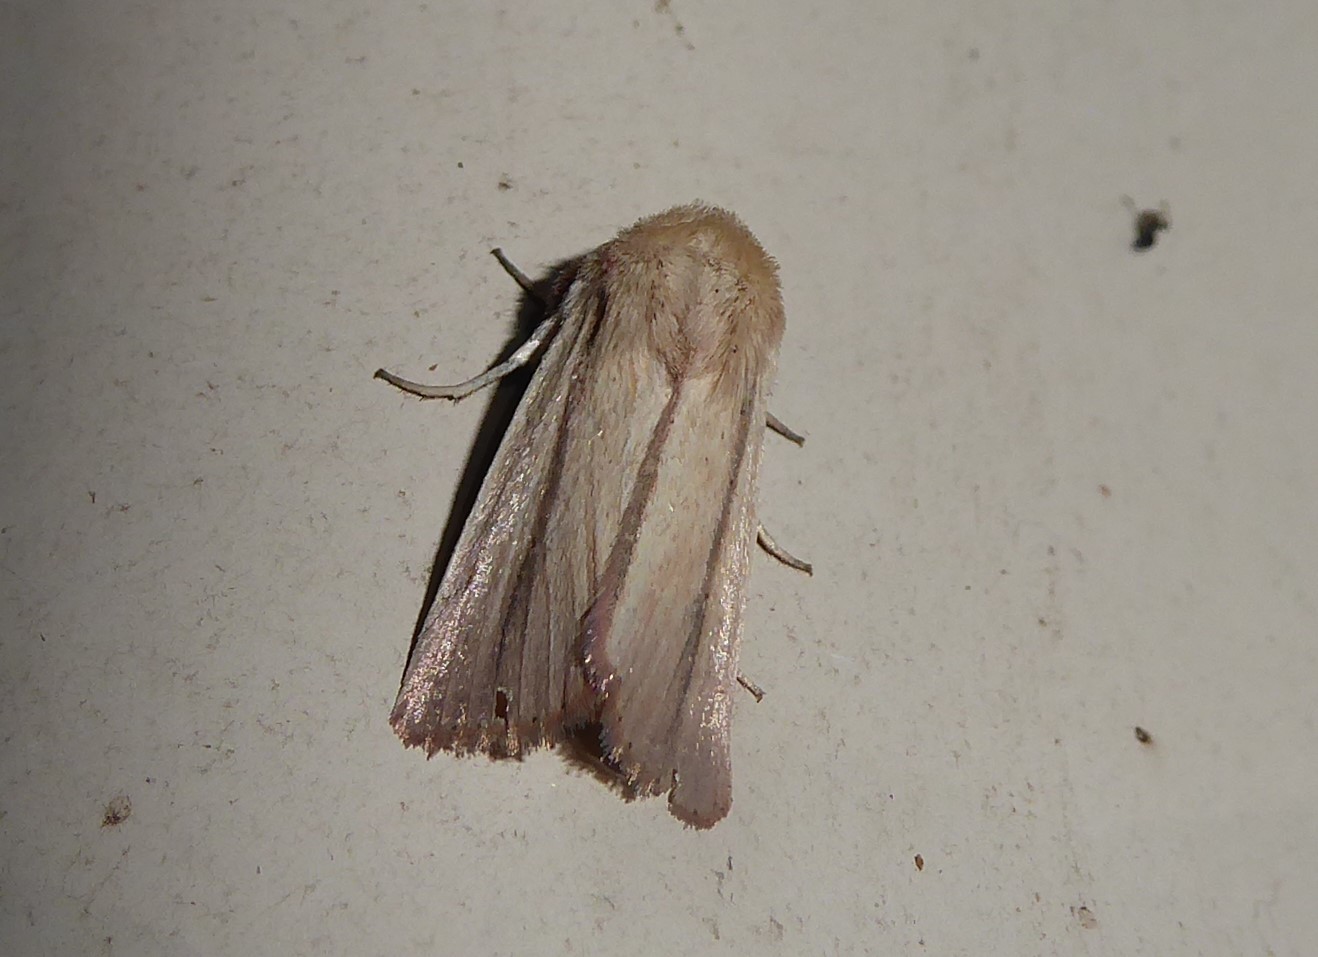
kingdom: Animalia
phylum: Arthropoda
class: Insecta
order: Lepidoptera
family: Noctuidae
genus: Leucania
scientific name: Leucania diatrecta
